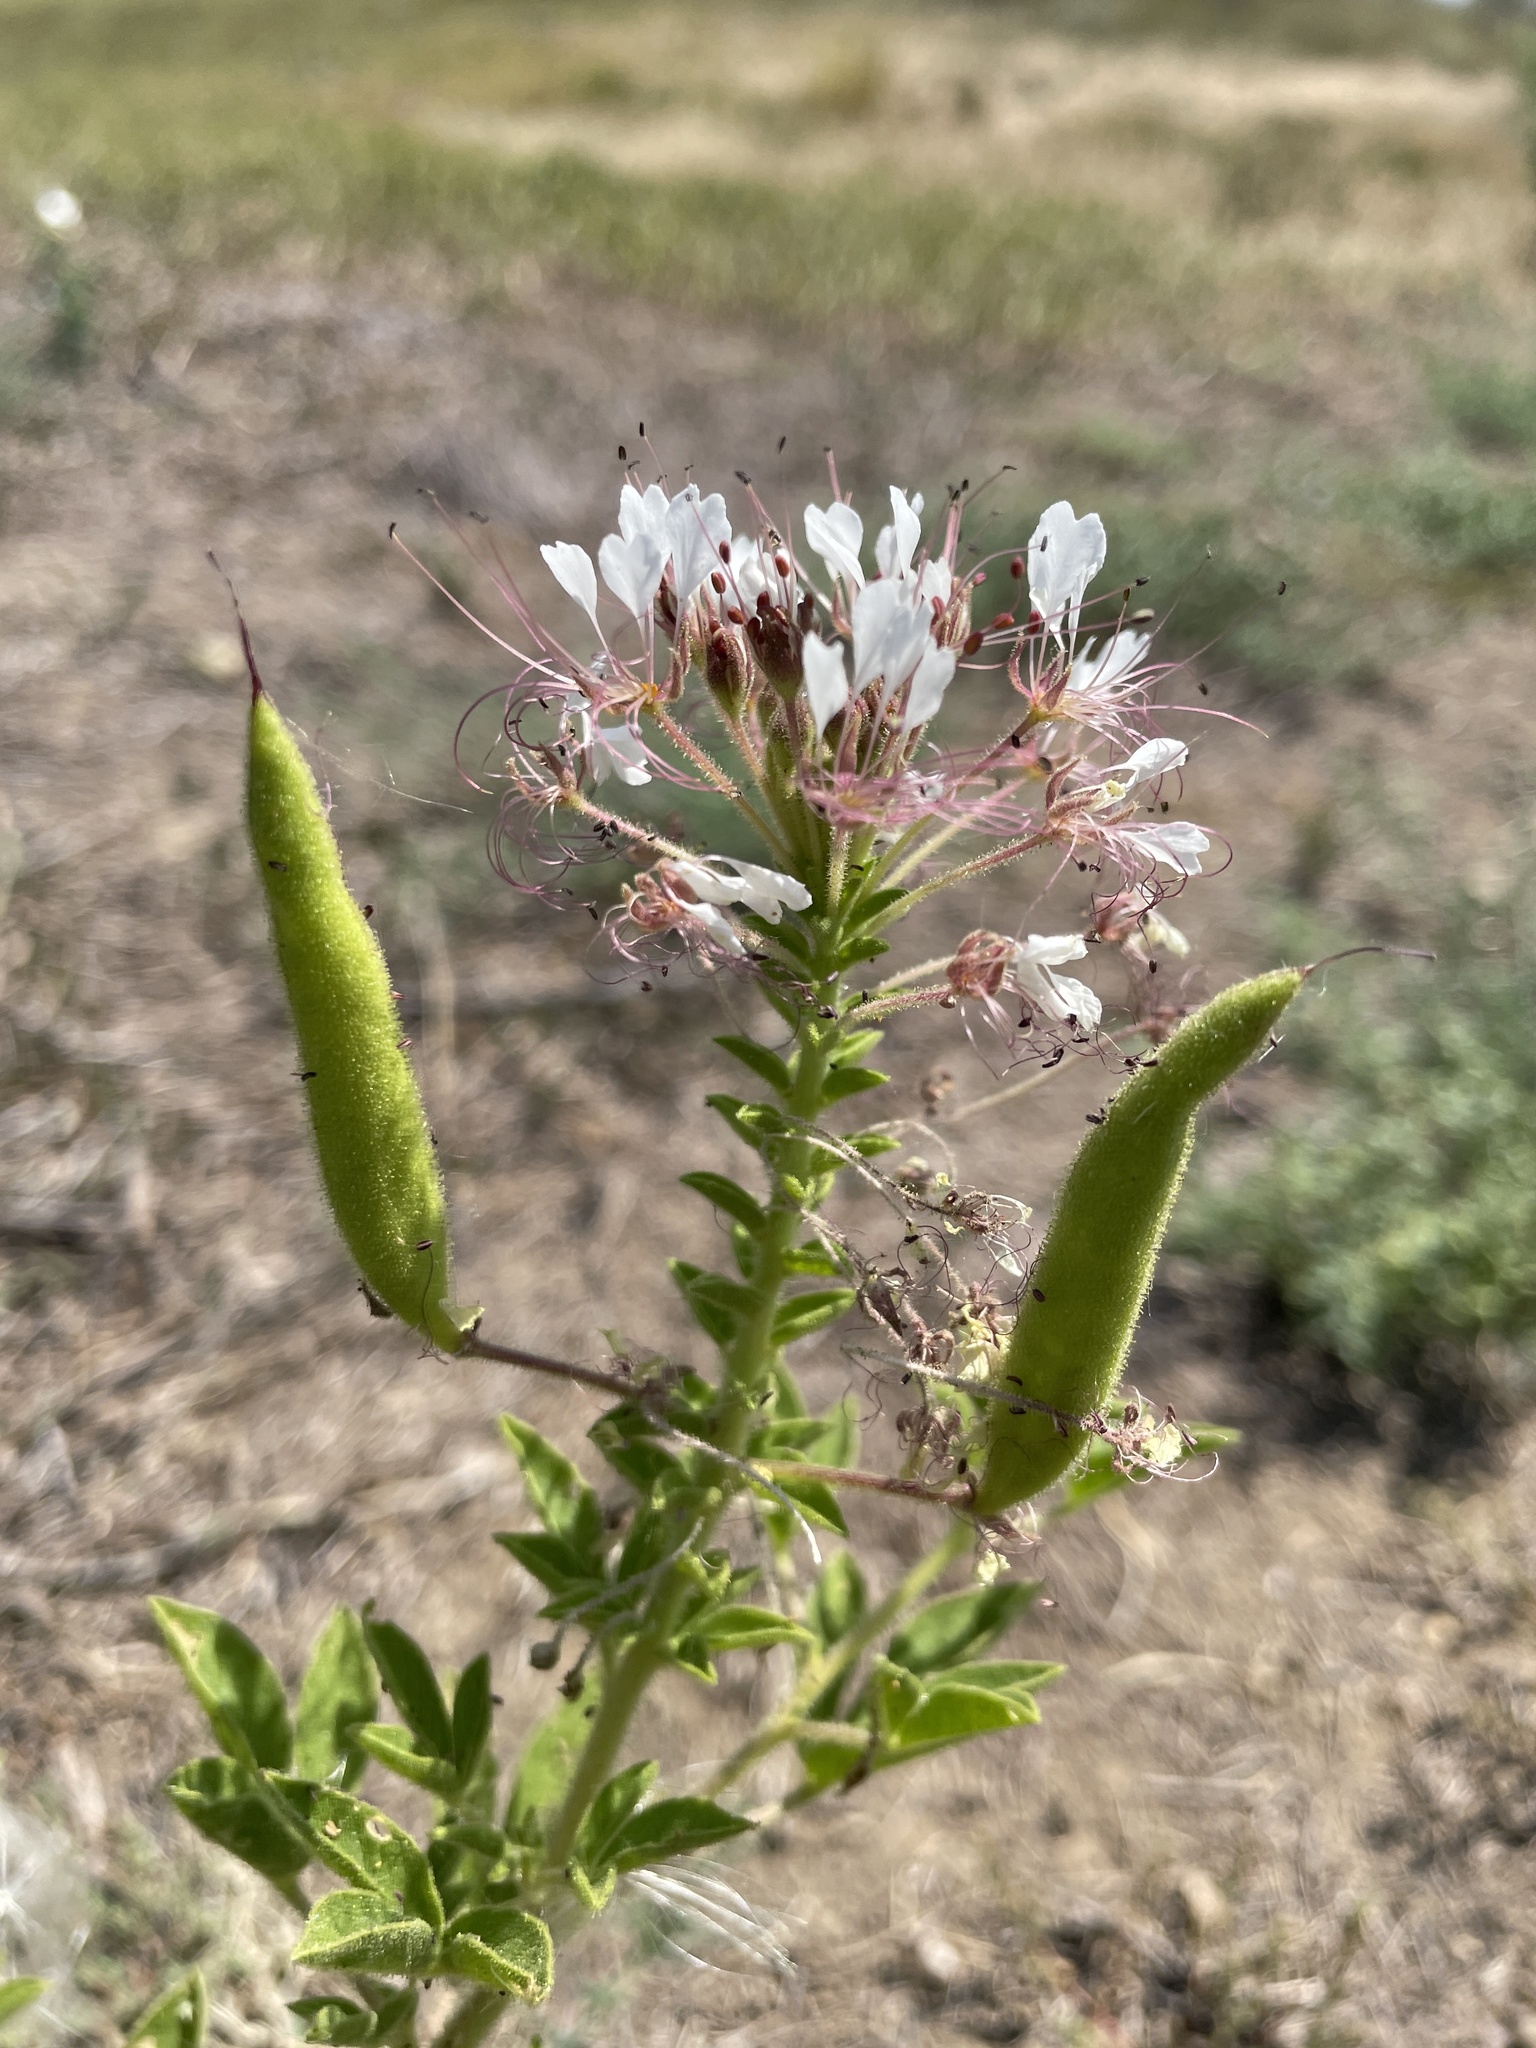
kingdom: Plantae
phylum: Tracheophyta
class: Magnoliopsida
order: Brassicales
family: Cleomaceae
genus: Polanisia
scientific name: Polanisia dodecandra
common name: Clammyweed
